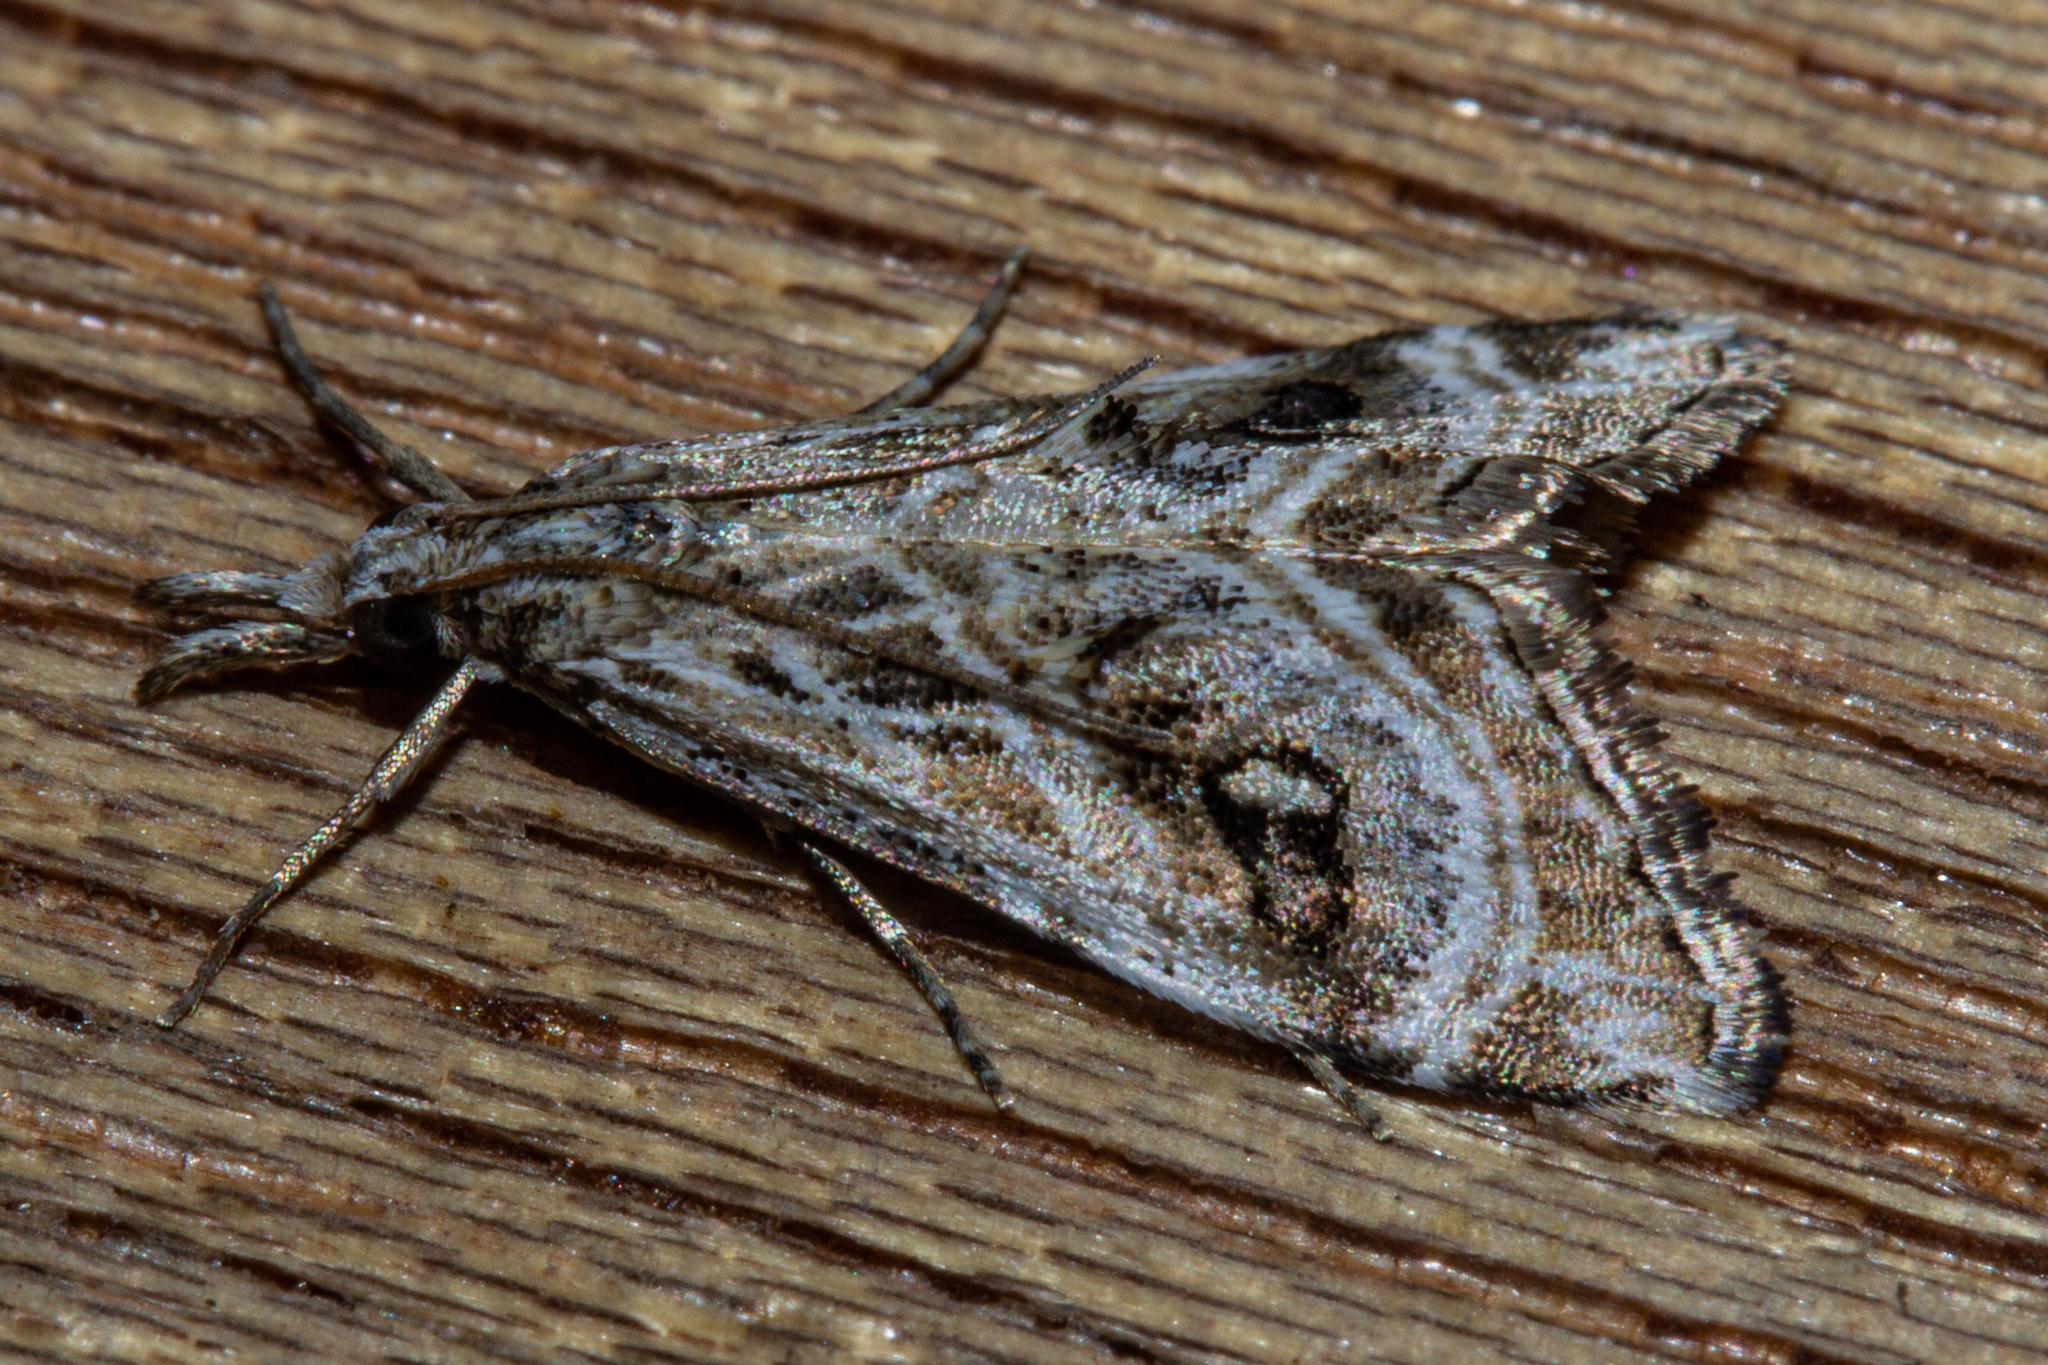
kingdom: Animalia
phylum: Arthropoda
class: Insecta
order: Lepidoptera
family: Crambidae
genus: Gadira
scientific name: Gadira acerella
